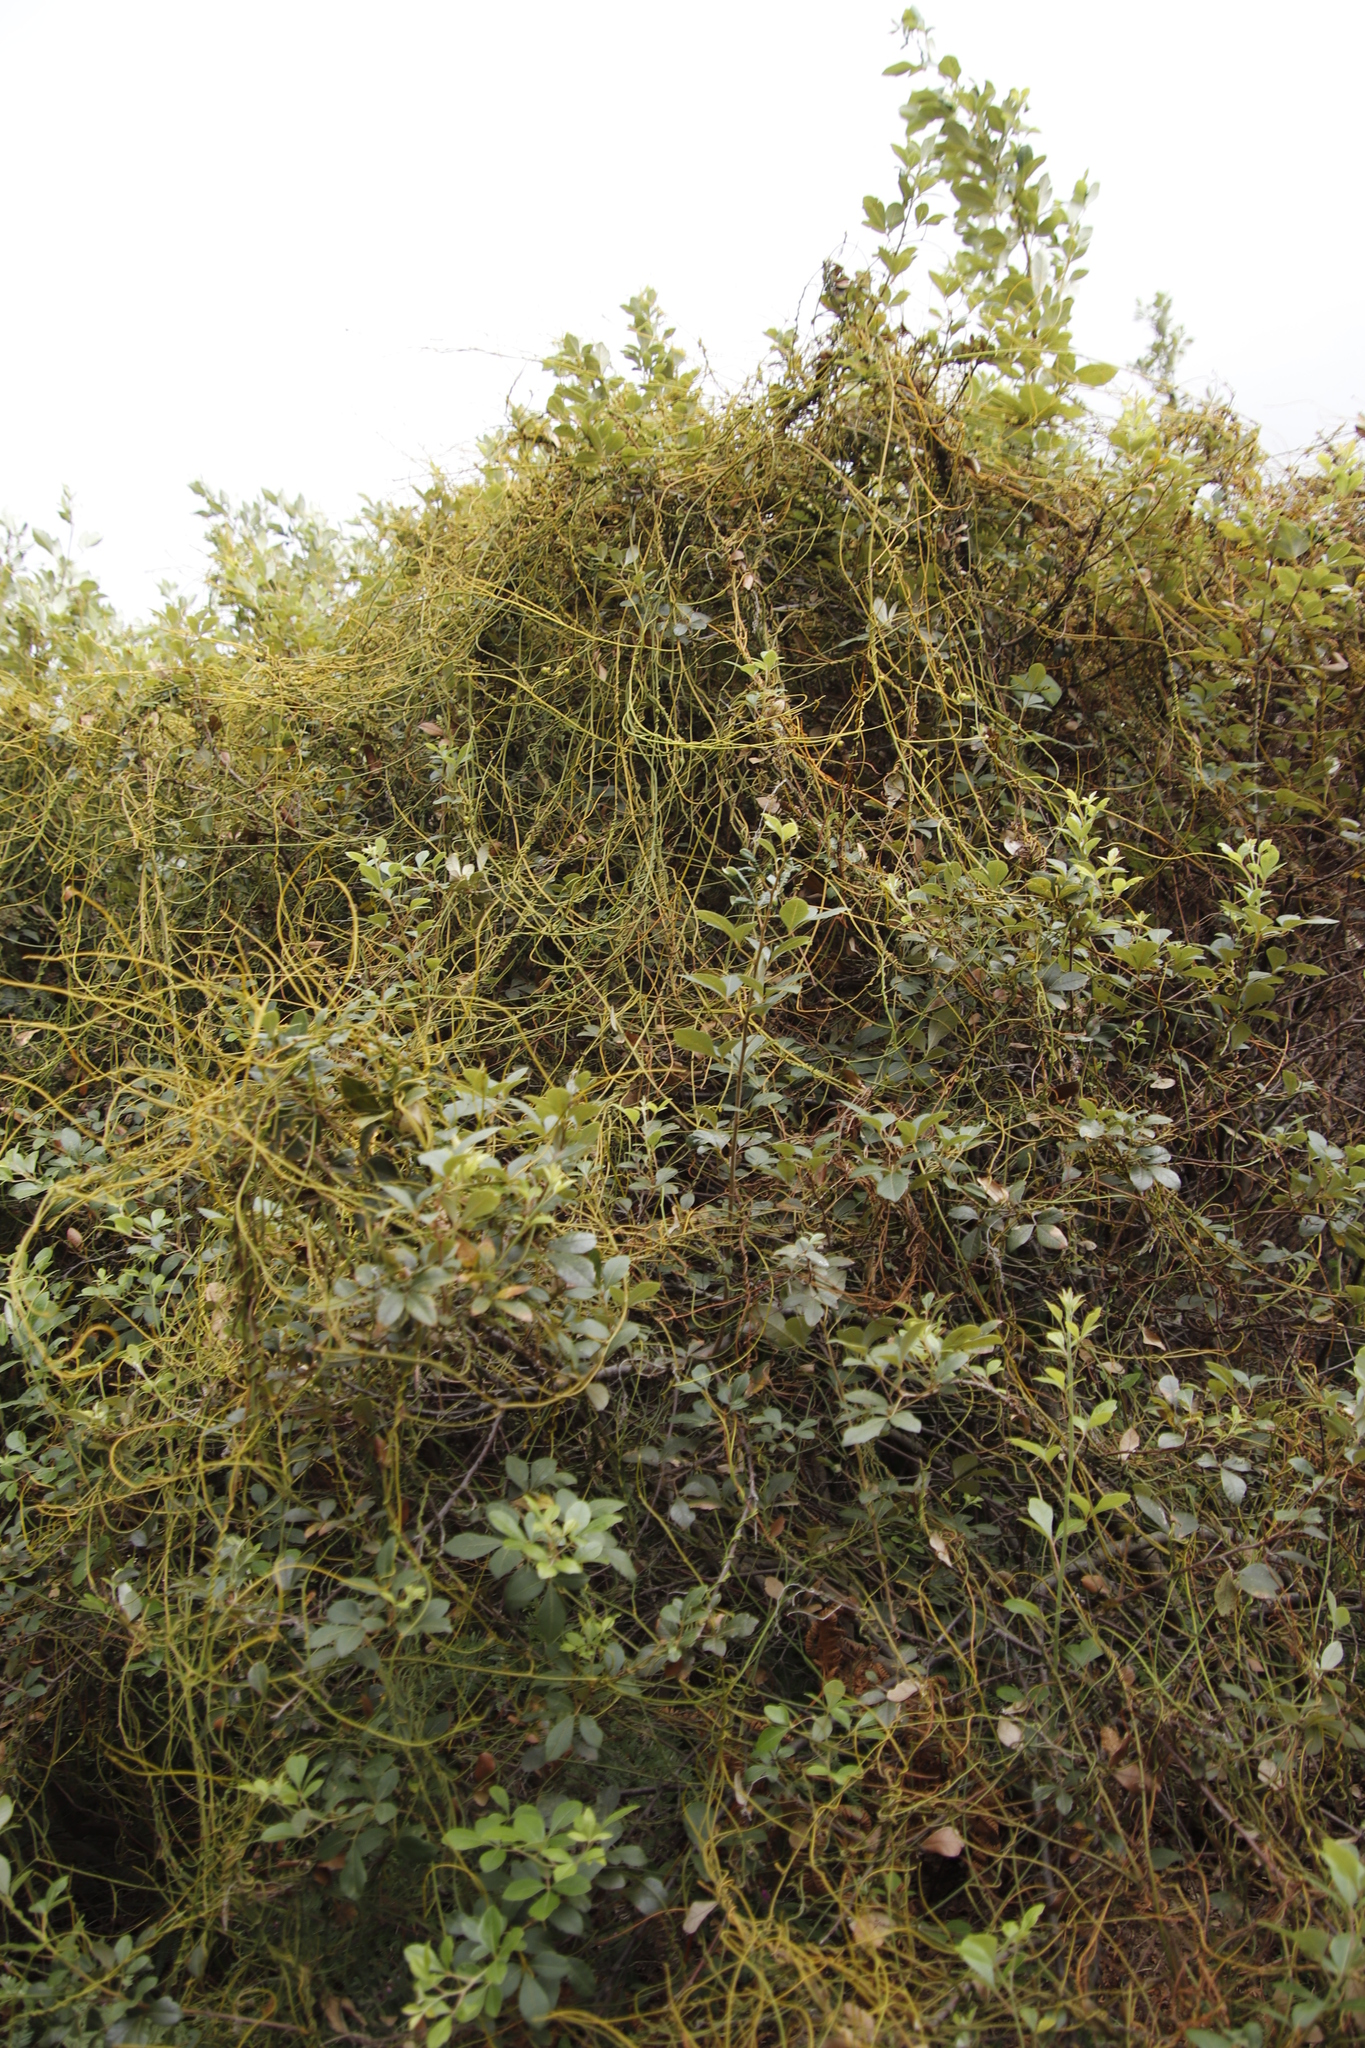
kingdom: Plantae
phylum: Tracheophyta
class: Magnoliopsida
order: Sapindales
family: Anacardiaceae
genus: Searsia
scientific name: Searsia tomentosa
